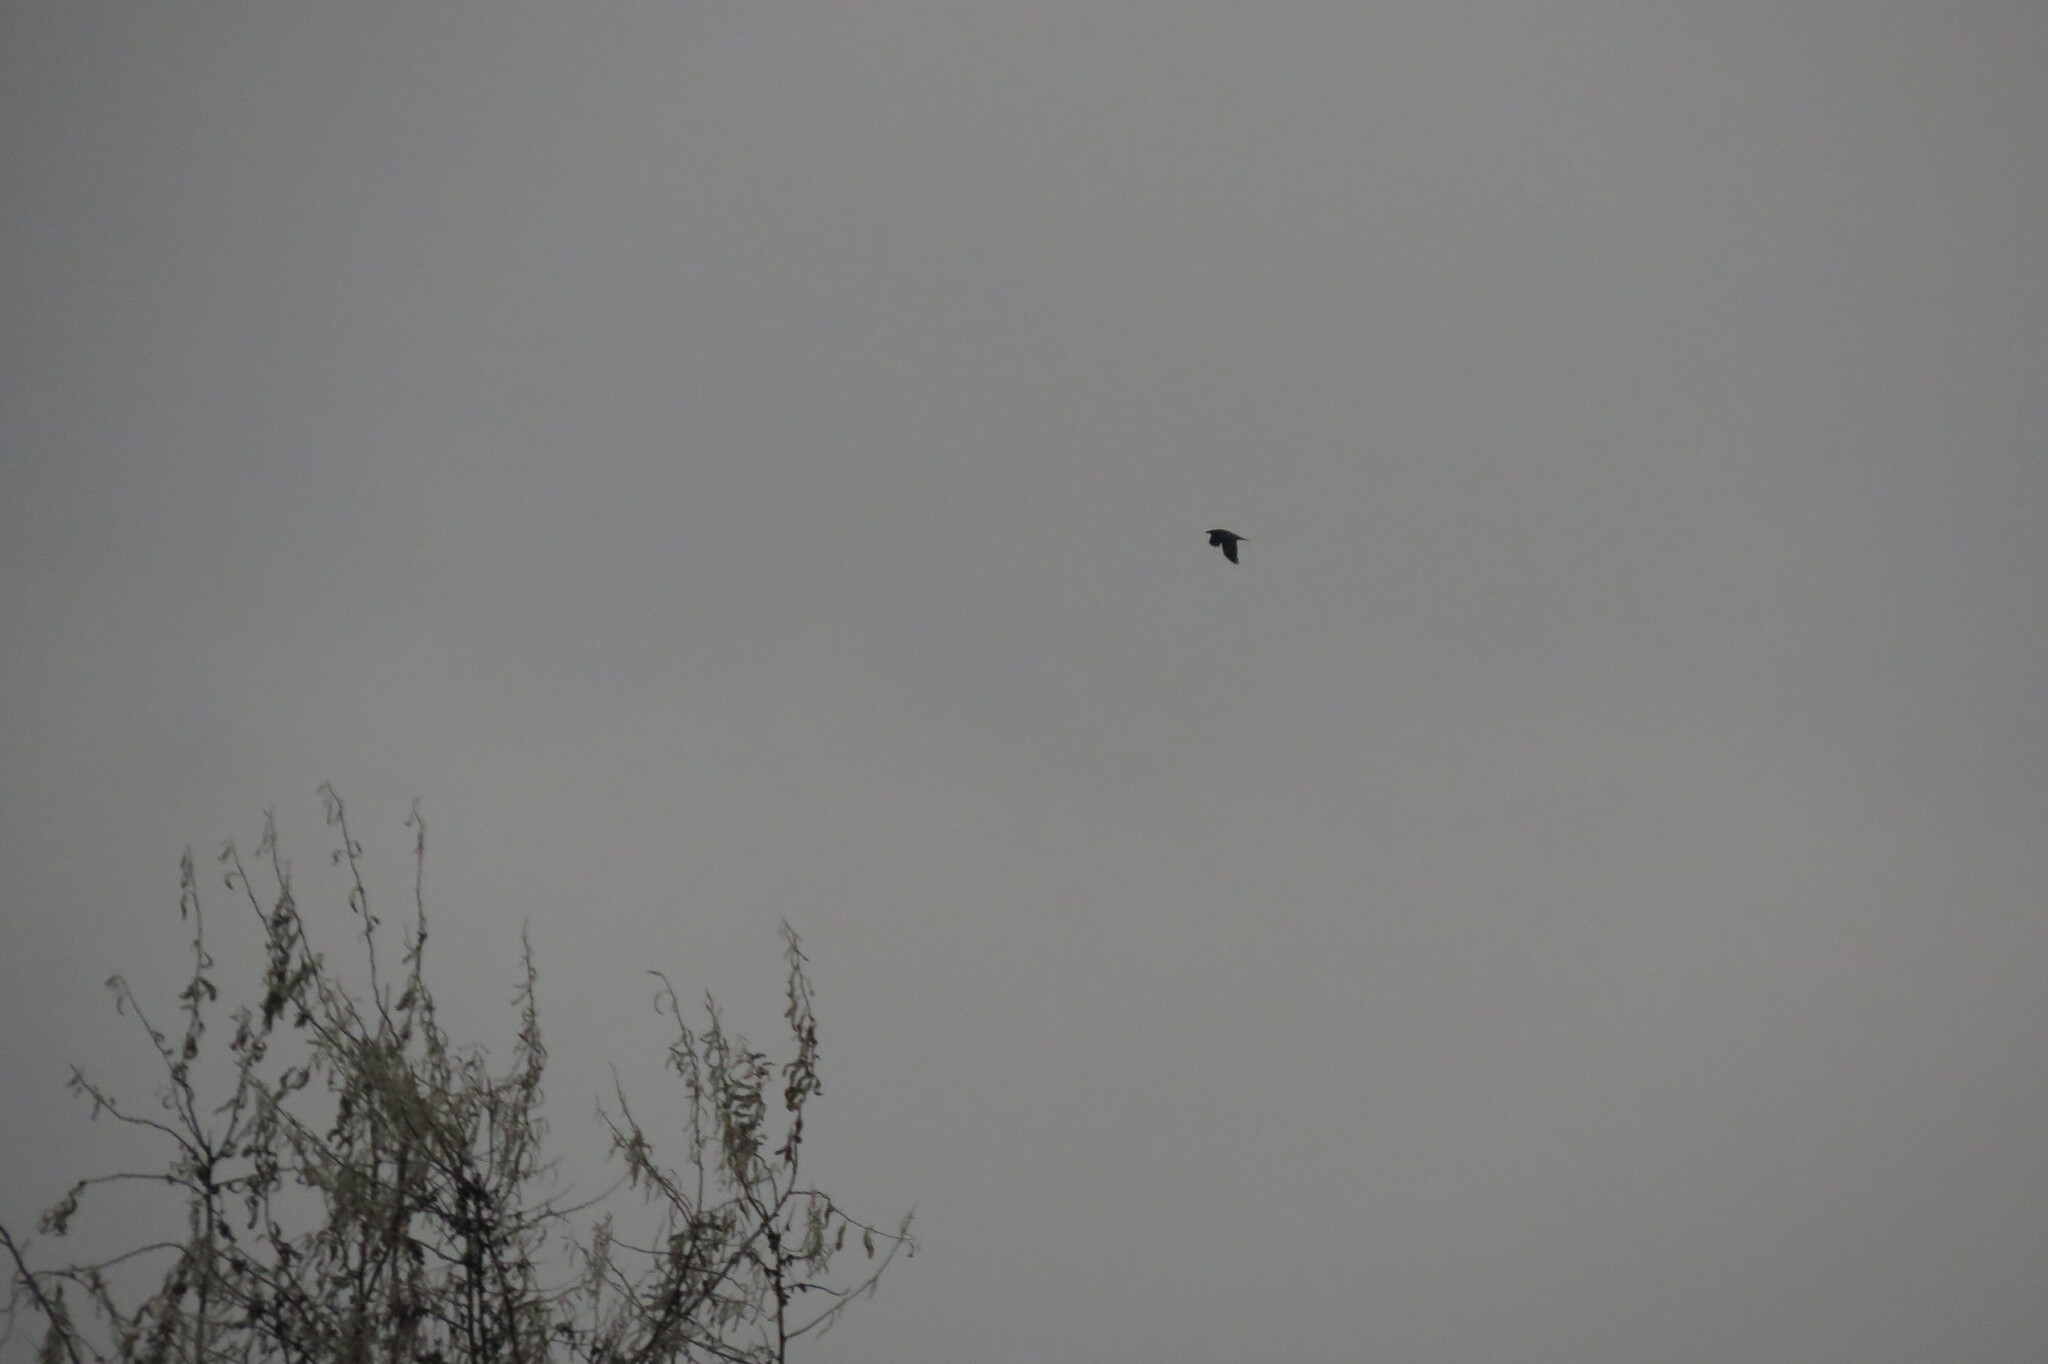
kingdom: Animalia
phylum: Chordata
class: Aves
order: Passeriformes
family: Corvidae
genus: Corvus
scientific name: Corvus corax
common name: Common raven
